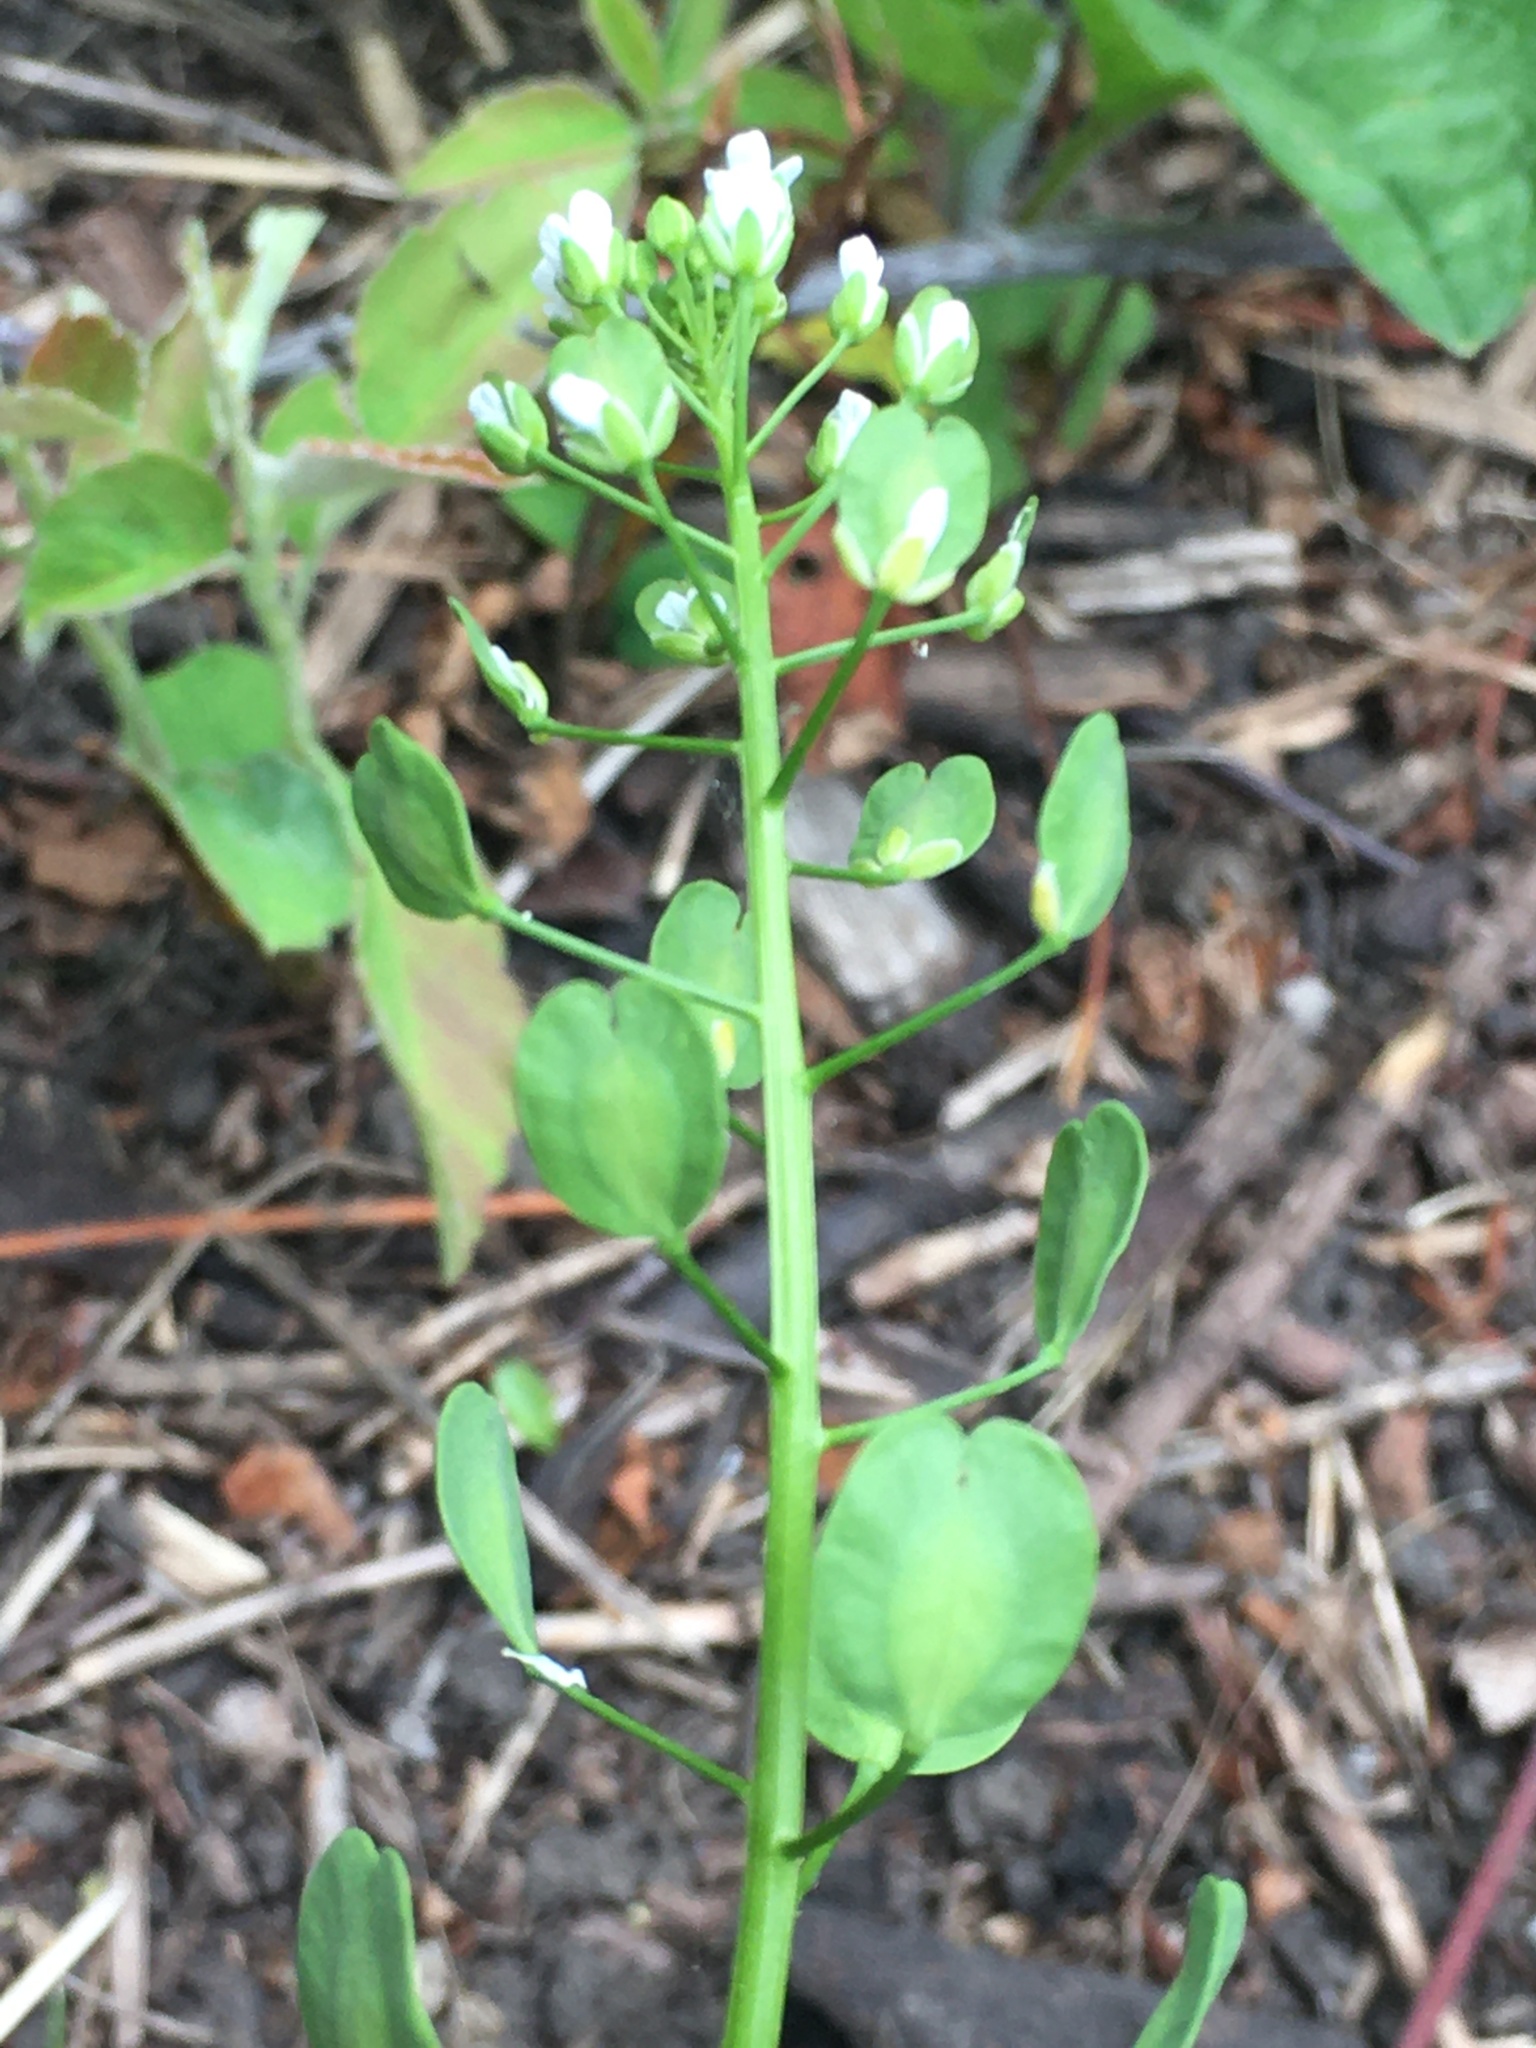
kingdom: Plantae
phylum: Tracheophyta
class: Magnoliopsida
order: Brassicales
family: Brassicaceae
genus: Thlaspi
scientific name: Thlaspi arvense
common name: Field pennycress
